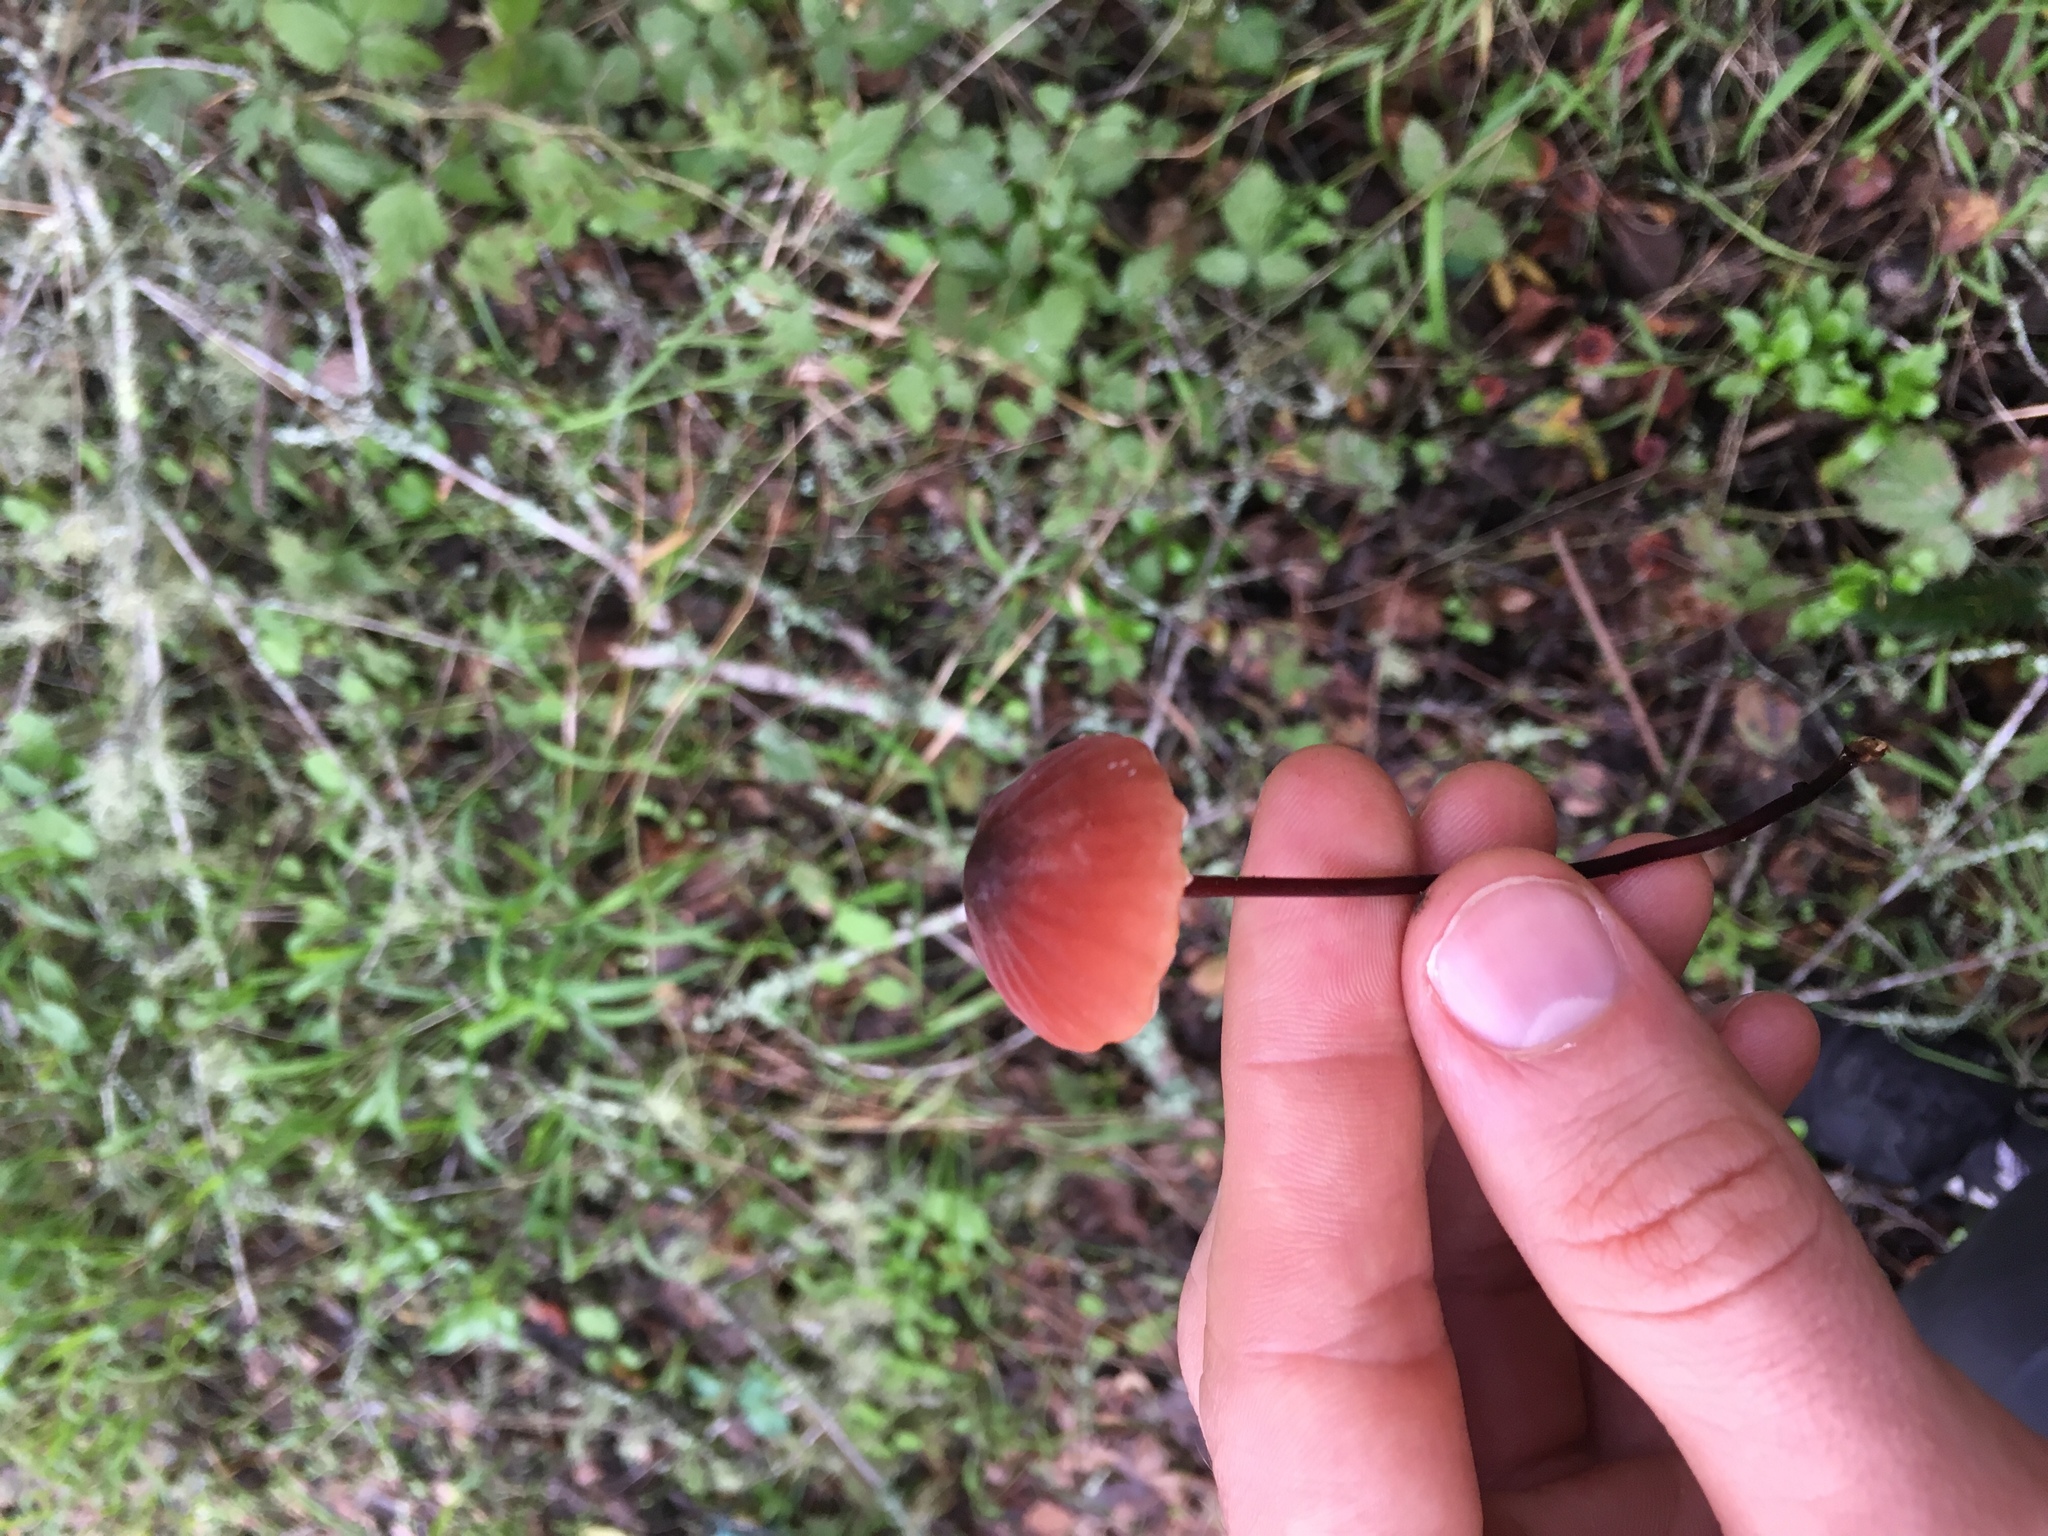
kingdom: Fungi
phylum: Basidiomycota
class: Agaricomycetes
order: Agaricales
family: Marasmiaceae
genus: Marasmius
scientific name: Marasmius plicatulus
